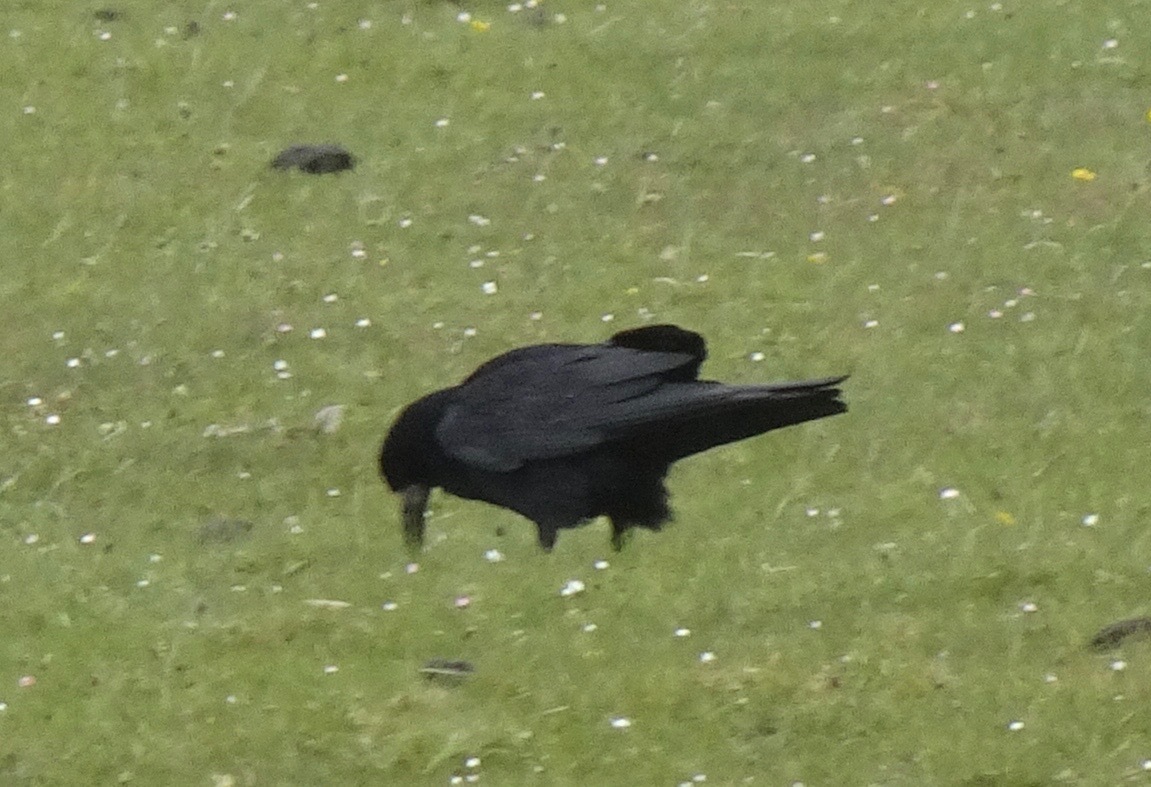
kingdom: Animalia
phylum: Chordata
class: Aves
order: Passeriformes
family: Corvidae
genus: Corvus
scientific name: Corvus frugilegus
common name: Rook
